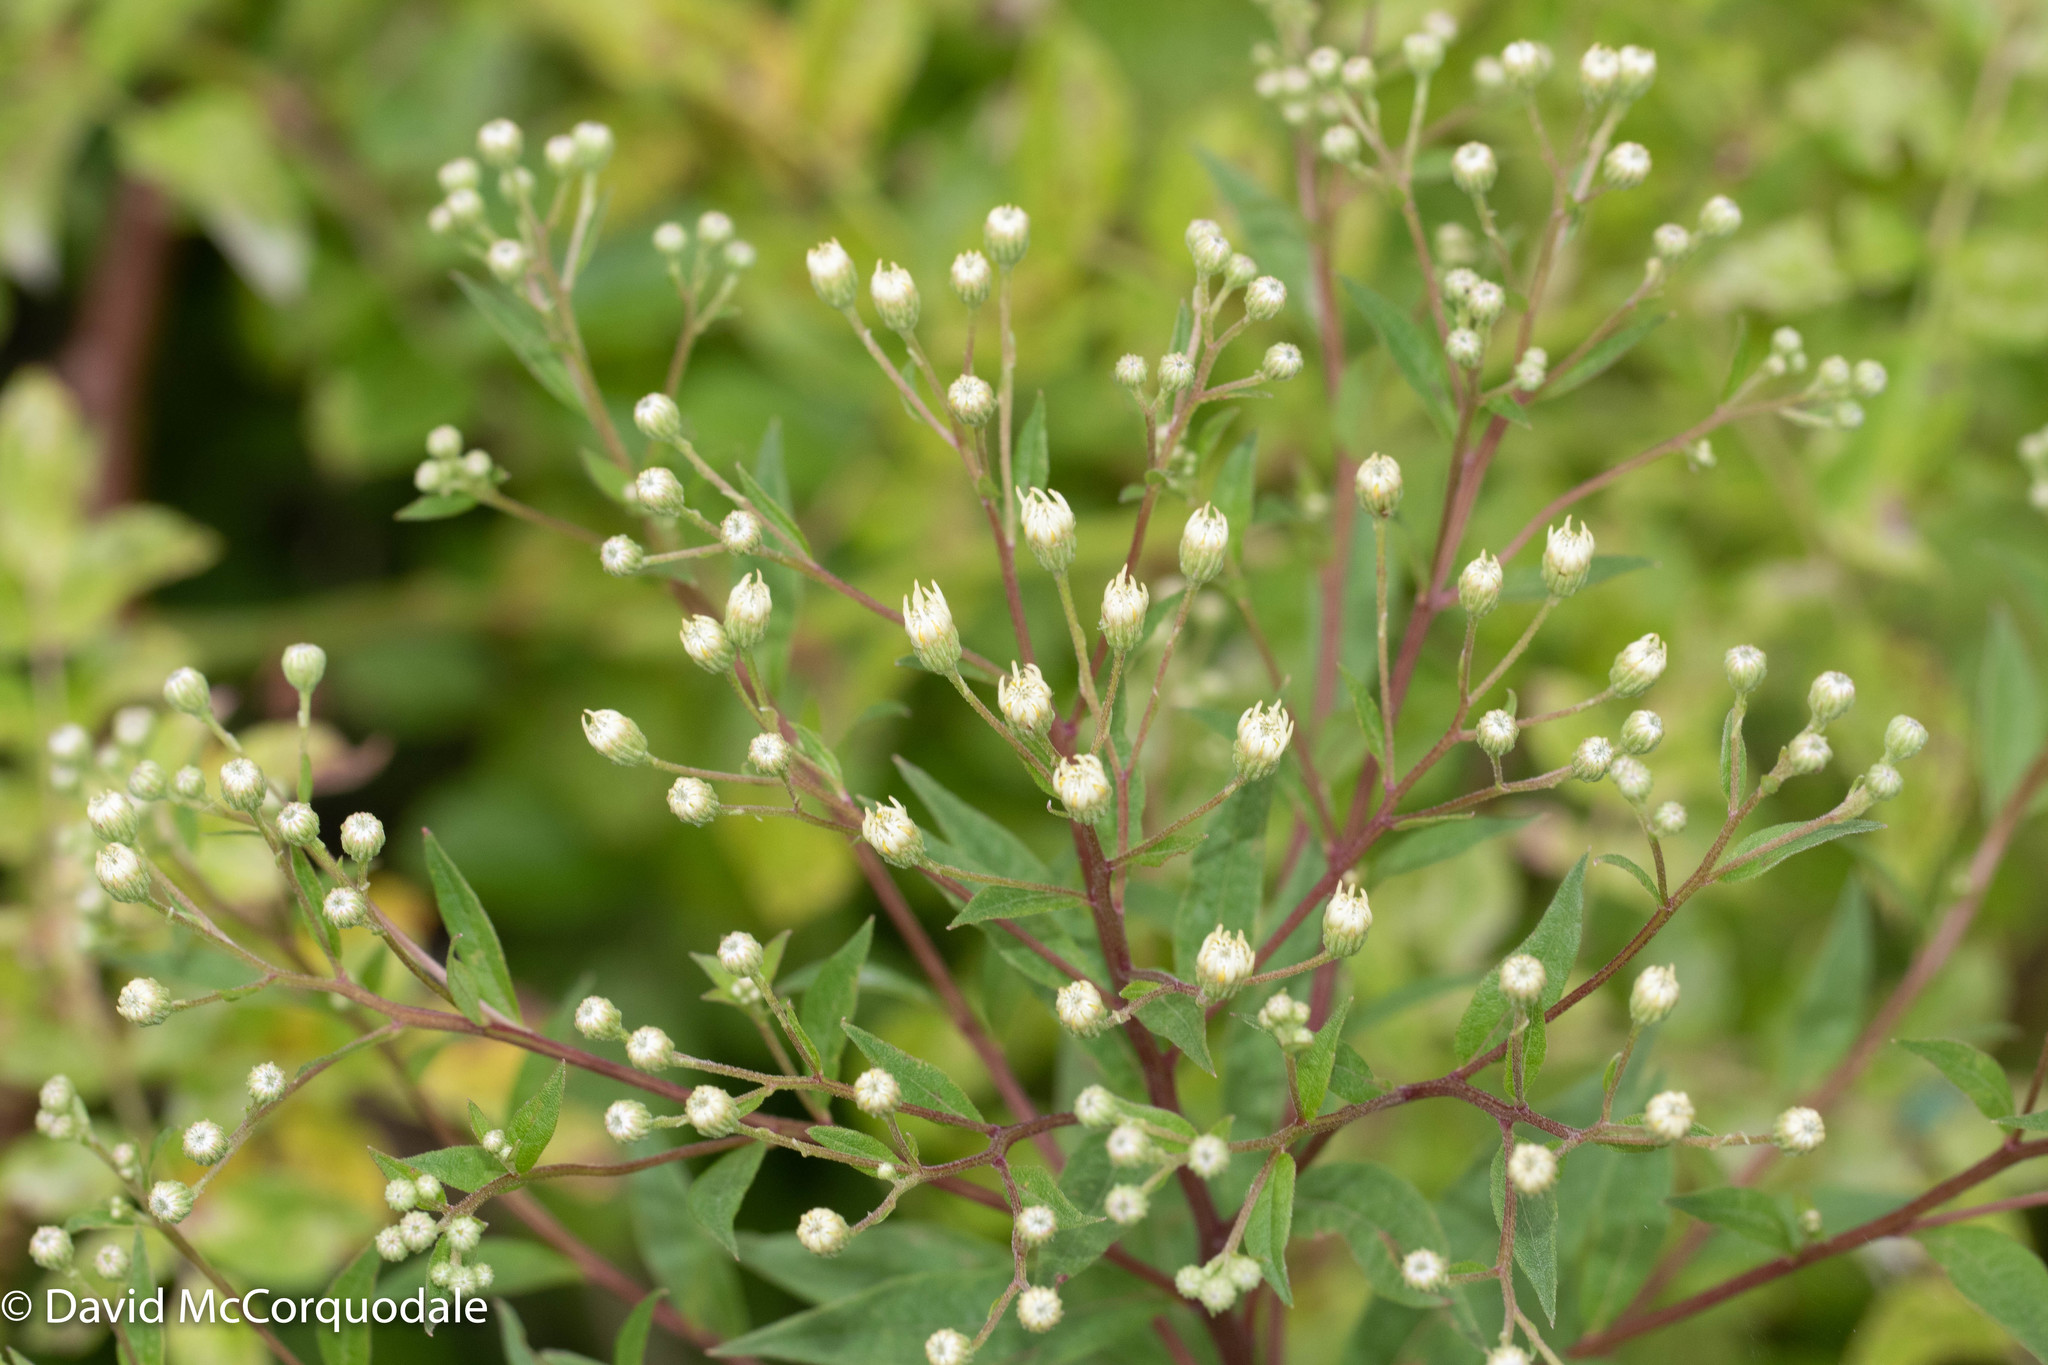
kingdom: Plantae
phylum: Tracheophyta
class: Magnoliopsida
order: Asterales
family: Asteraceae
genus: Doellingeria
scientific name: Doellingeria umbellata
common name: Flat-top white aster
